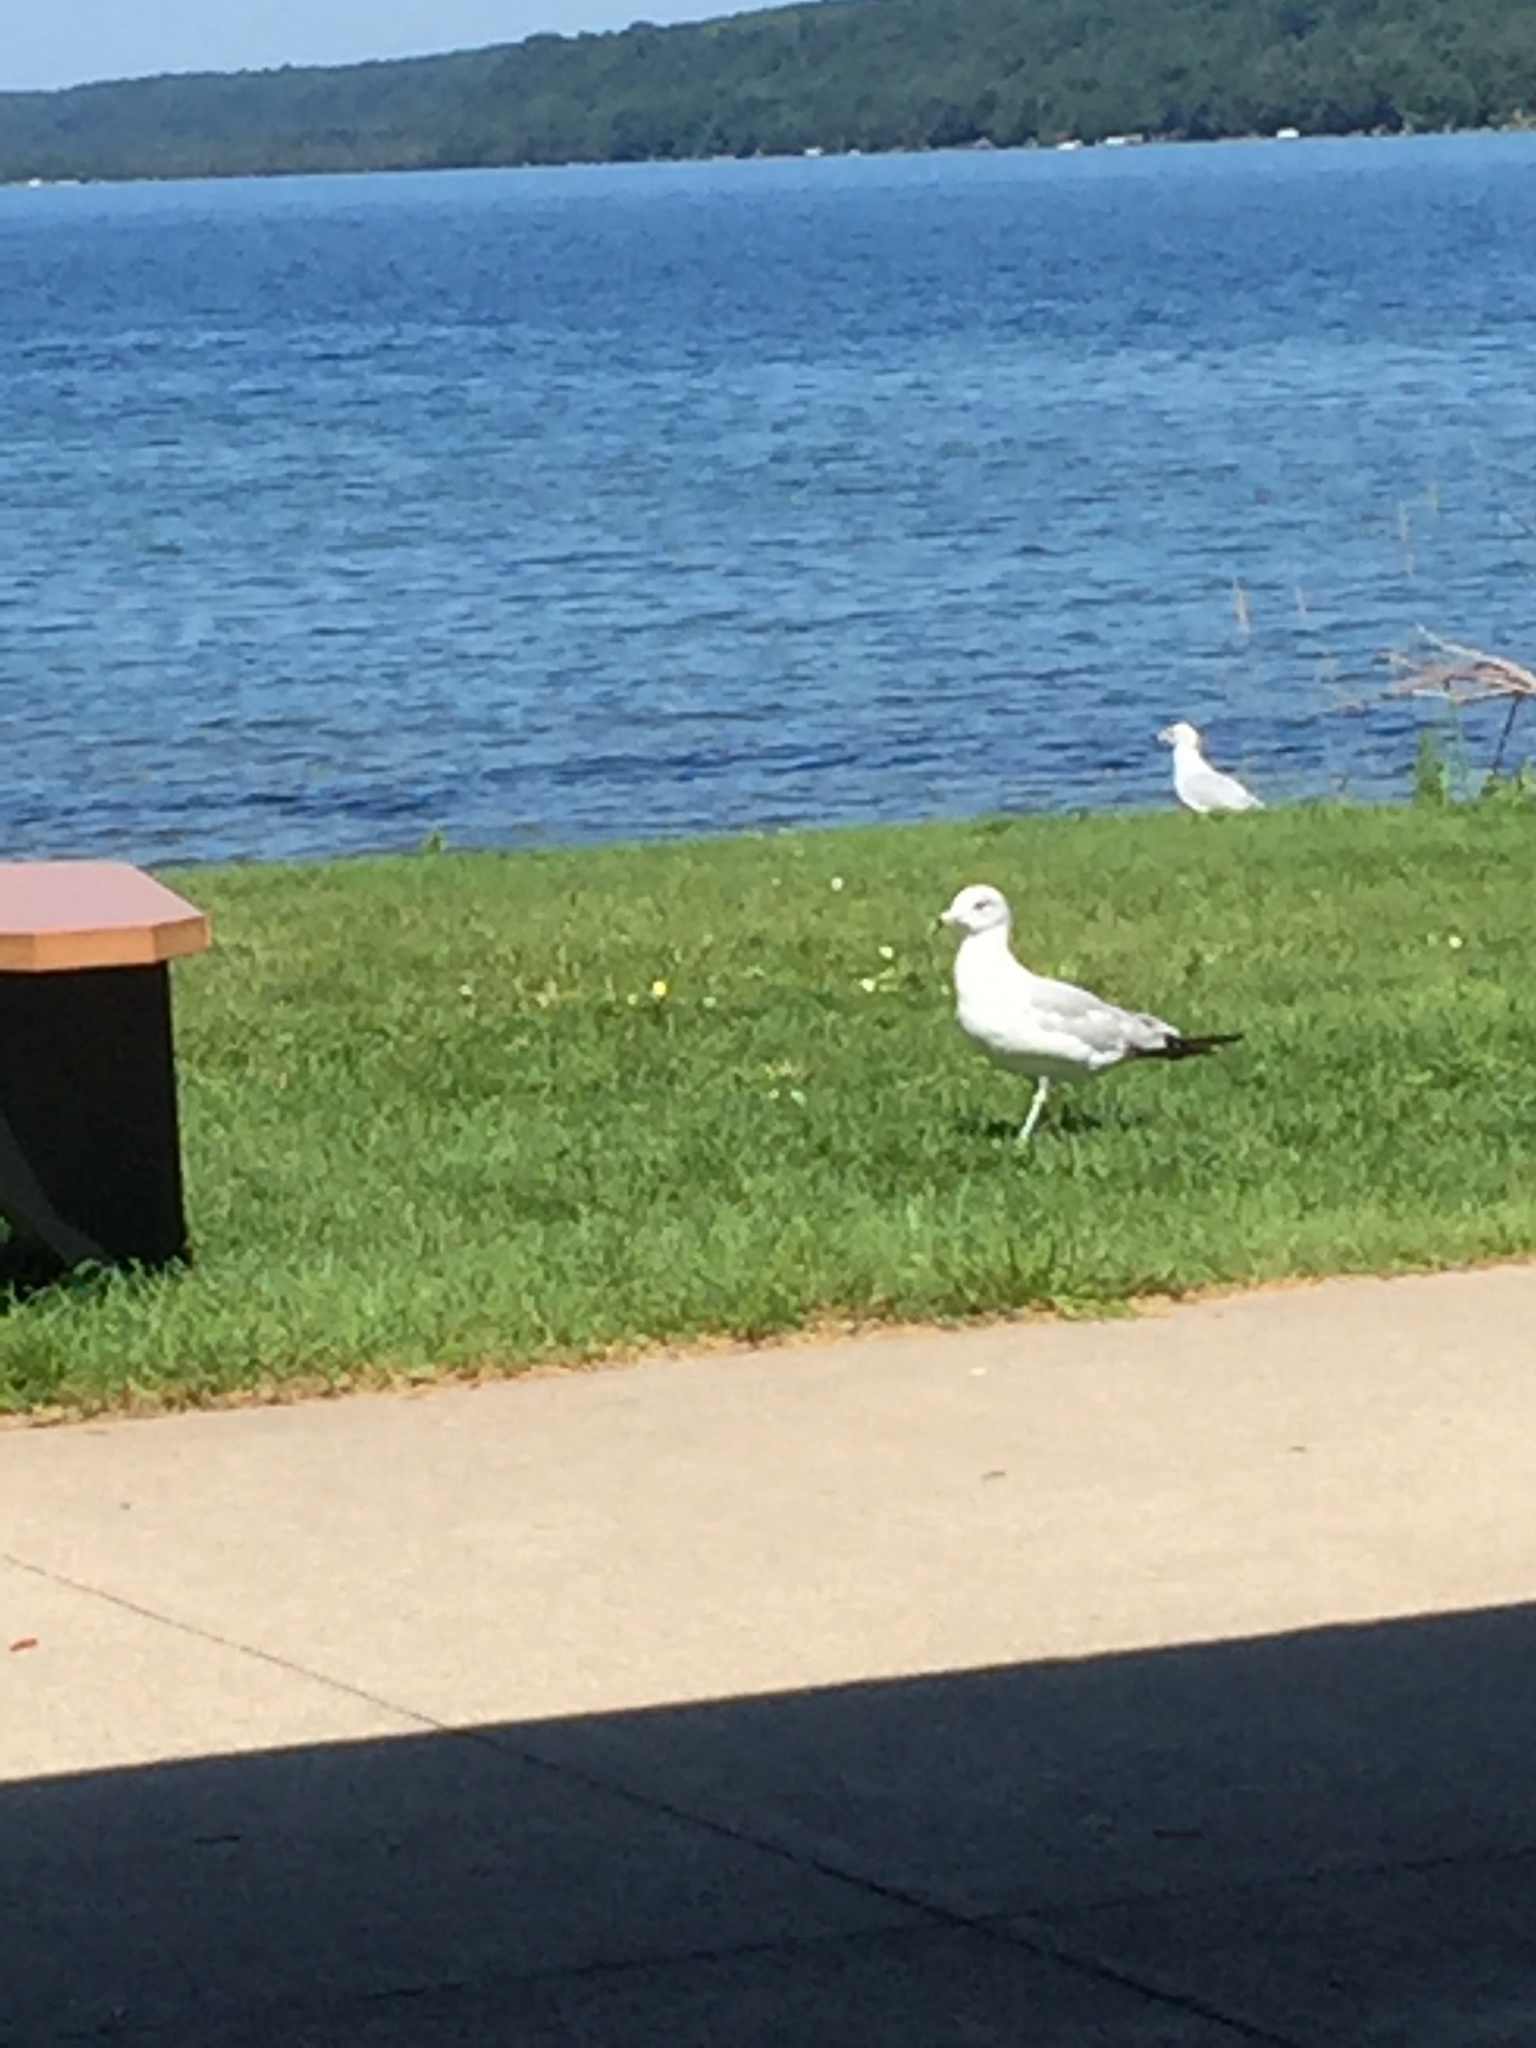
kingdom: Animalia
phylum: Chordata
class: Aves
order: Charadriiformes
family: Laridae
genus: Larus
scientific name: Larus delawarensis
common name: Ring-billed gull
